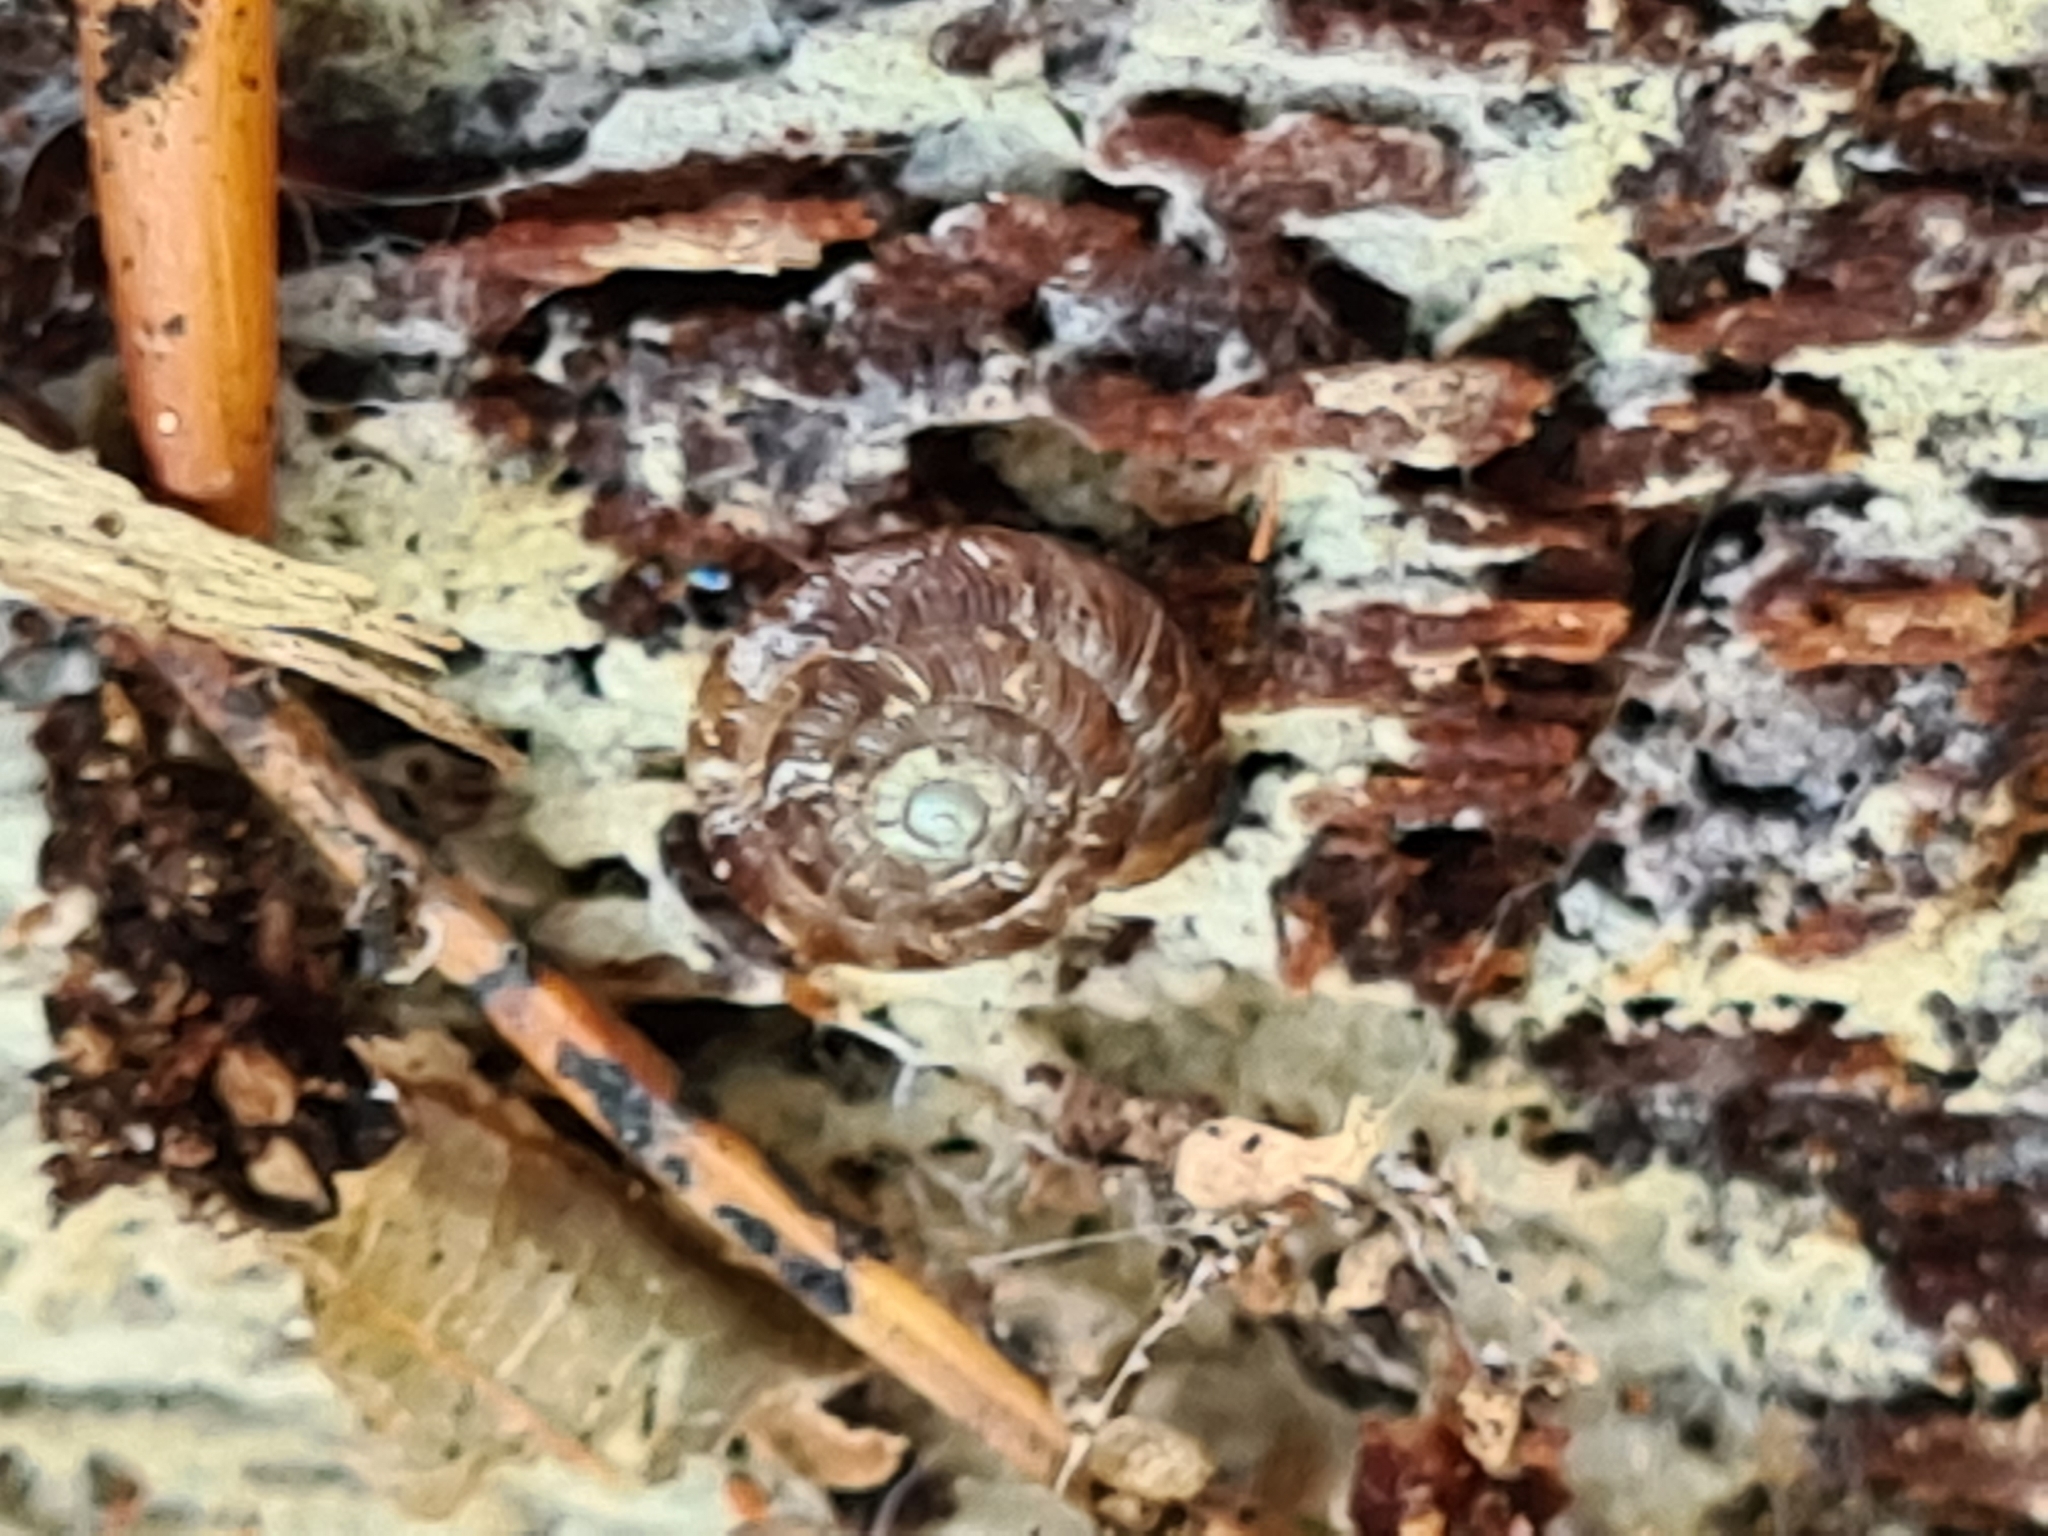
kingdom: Animalia
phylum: Mollusca
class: Gastropoda
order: Stylommatophora
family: Discidae
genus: Discus
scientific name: Discus rotundatus
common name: Rounded snail
